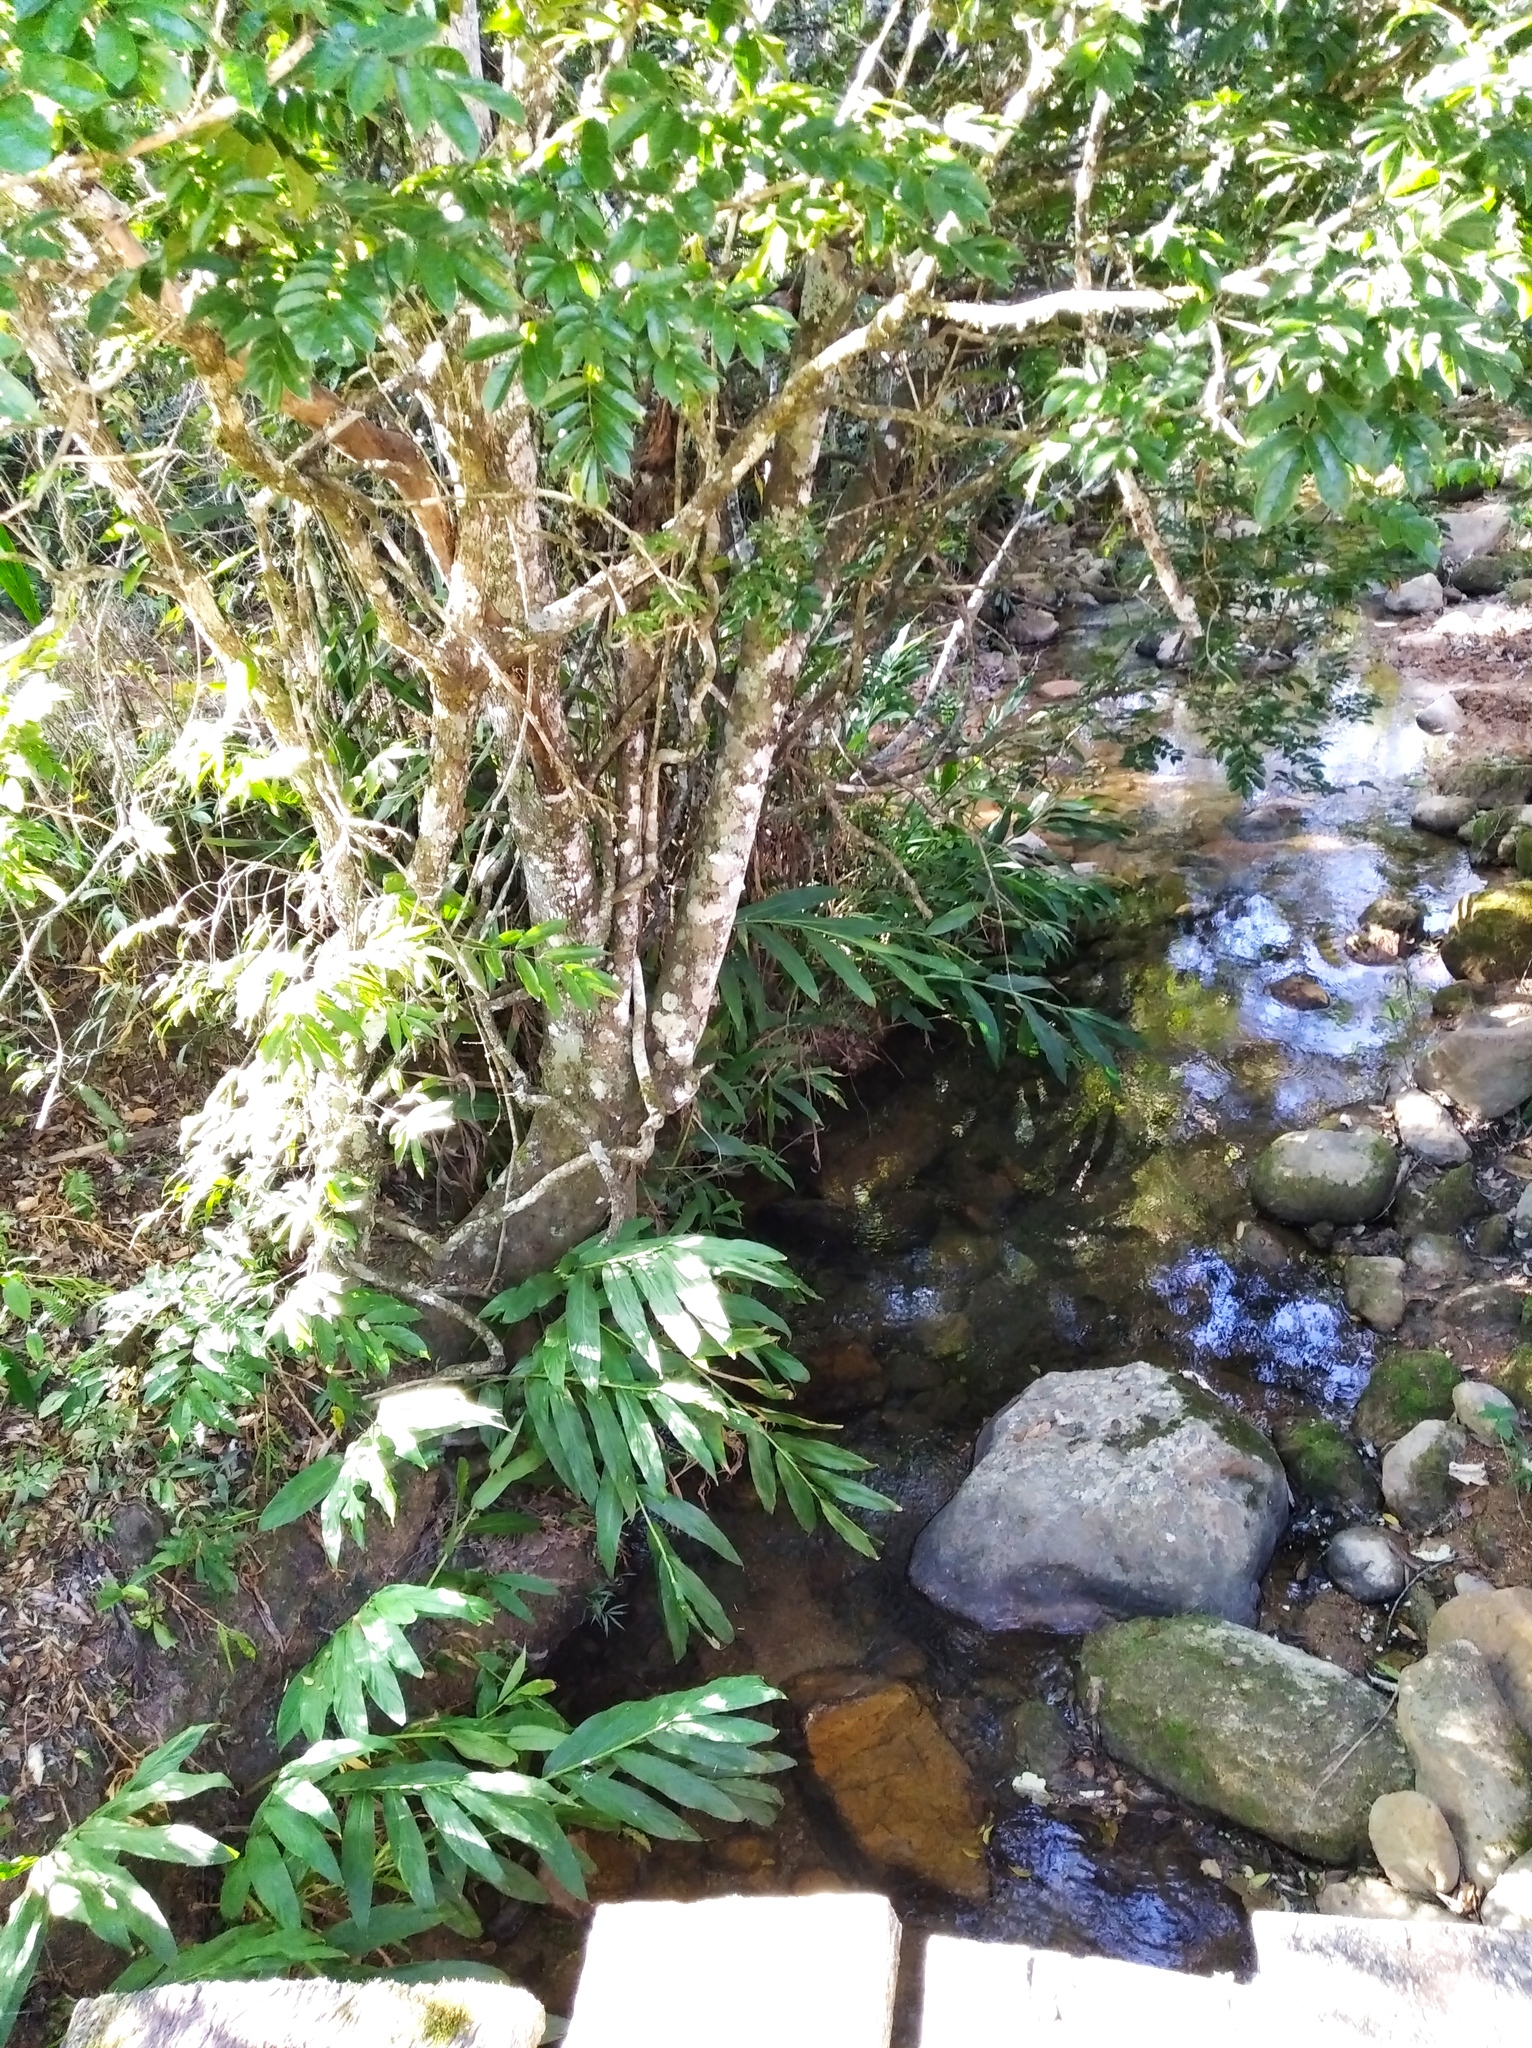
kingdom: Plantae
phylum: Tracheophyta
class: Liliopsida
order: Zingiberales
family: Zingiberaceae
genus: Hedychium
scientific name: Hedychium coronarium
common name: White garland-lily
